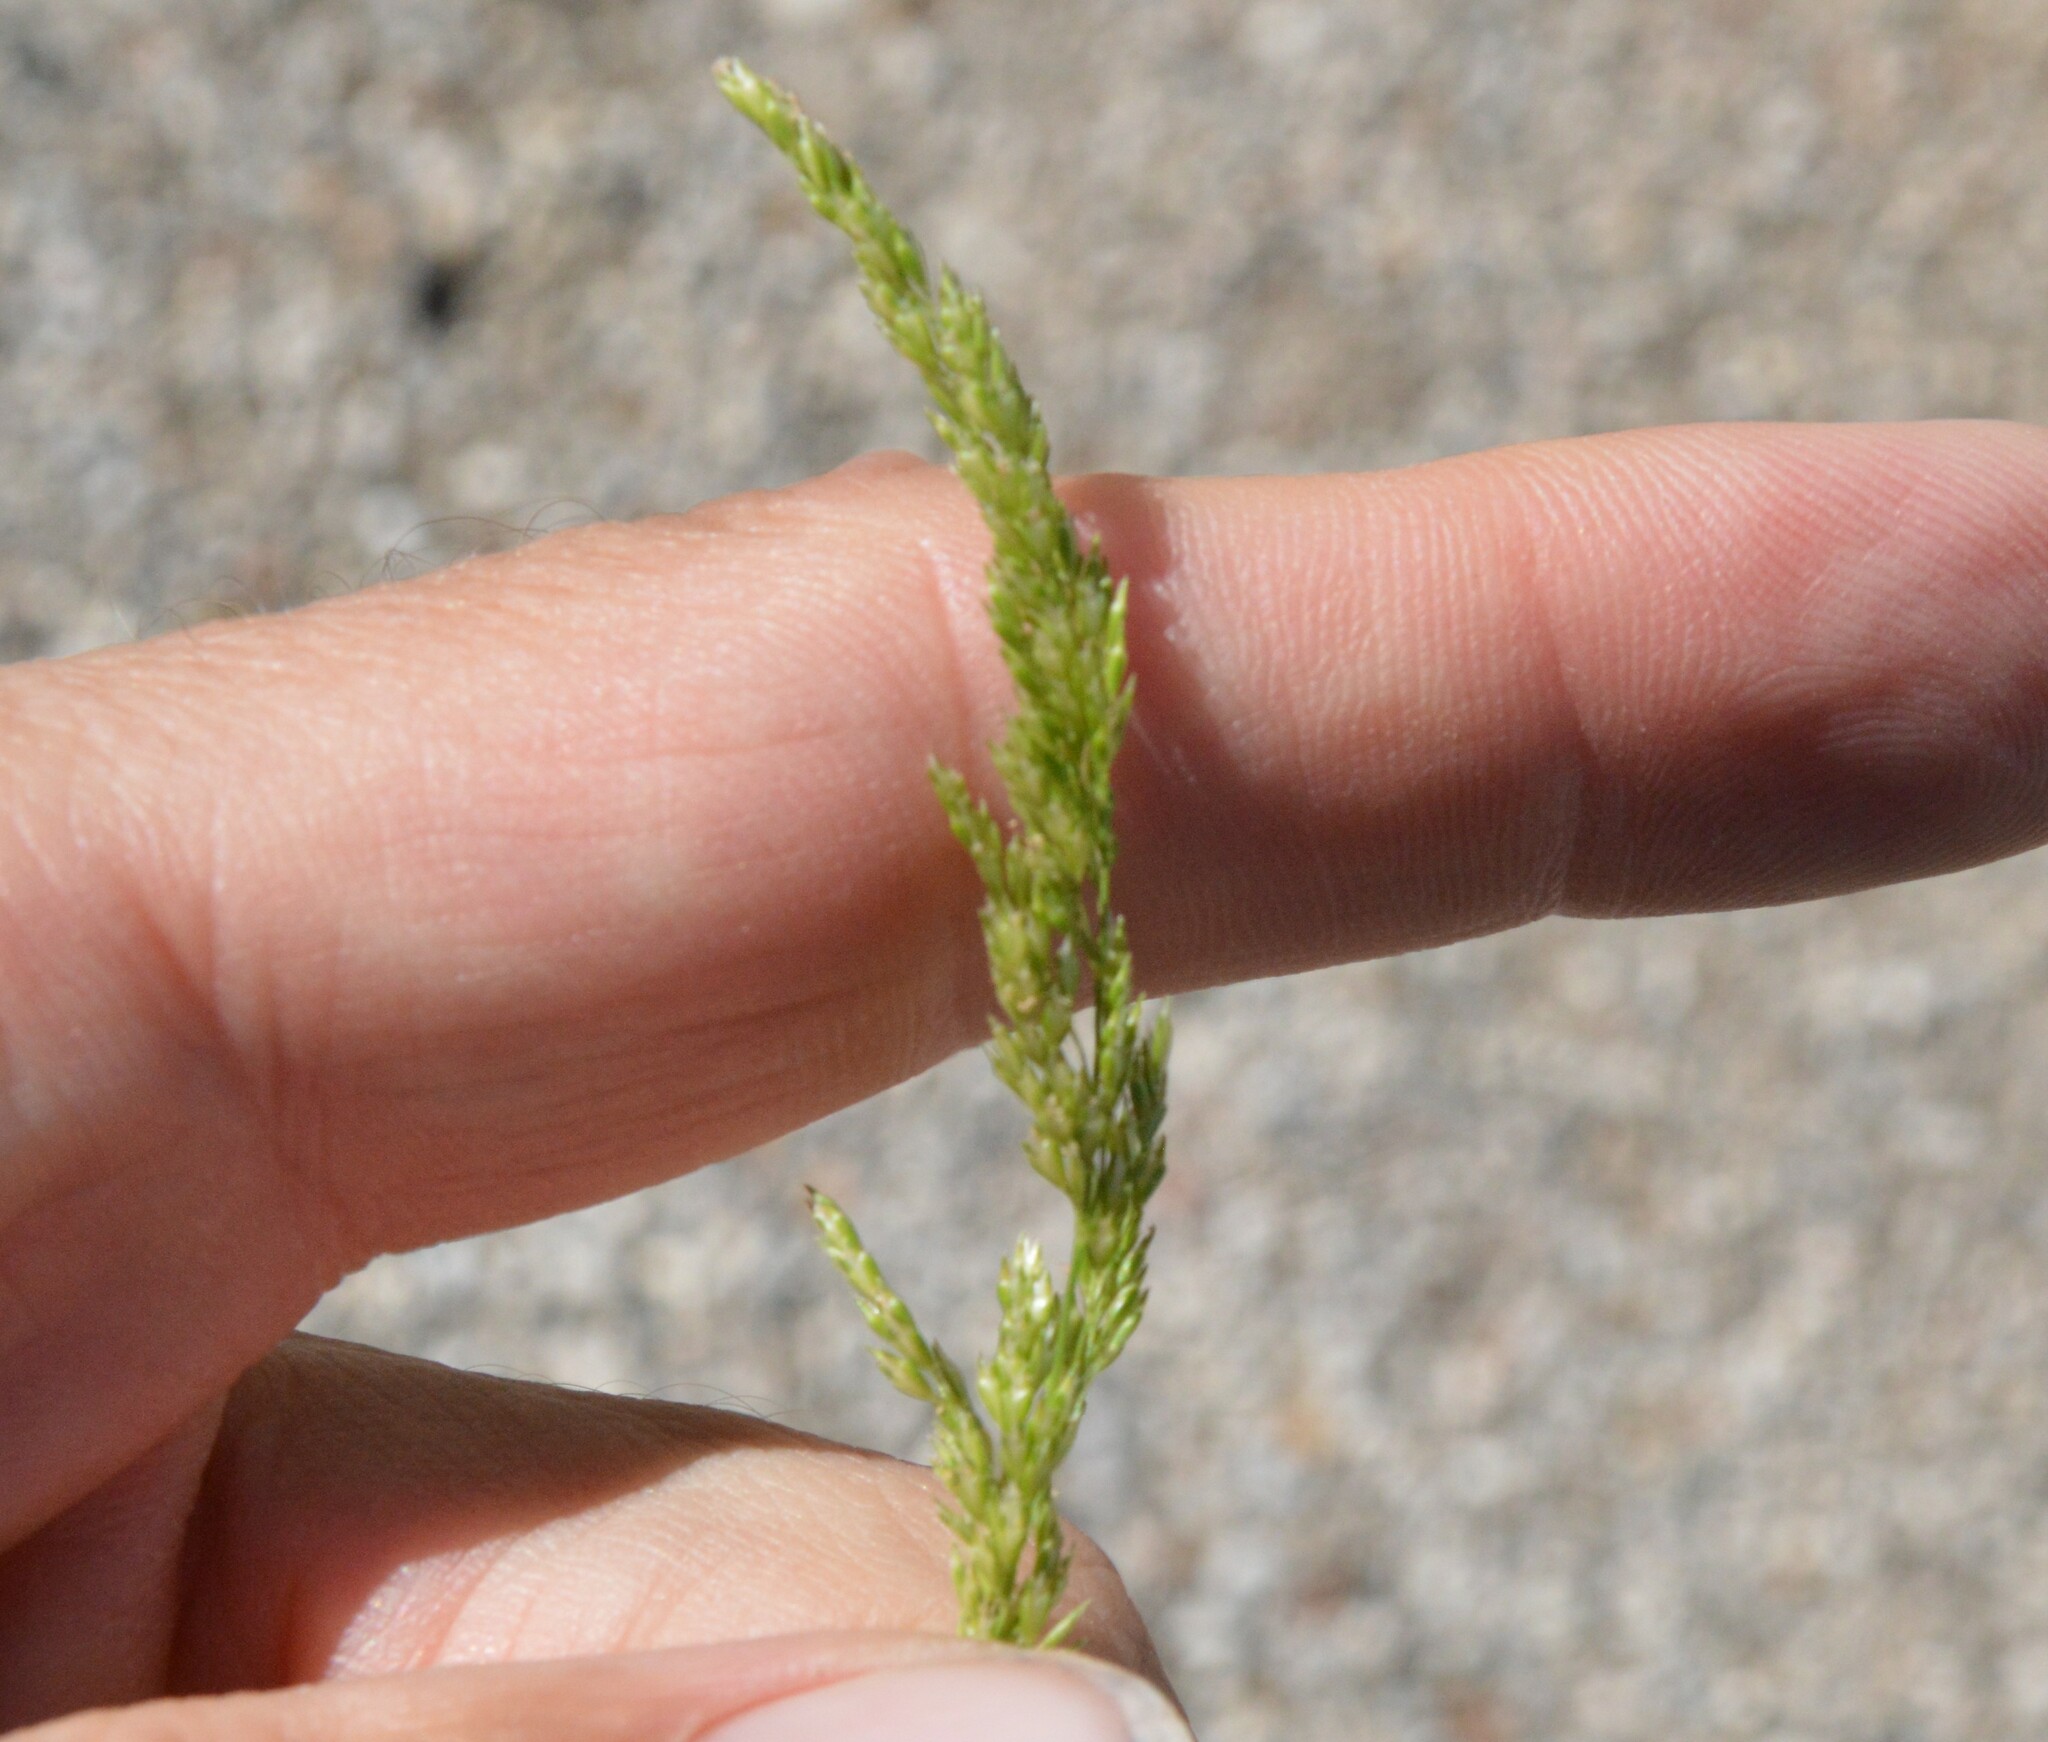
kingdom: Plantae
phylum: Tracheophyta
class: Liliopsida
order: Poales
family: Poaceae
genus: Sphenopholis
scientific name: Sphenopholis obtusata
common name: Prairie grass
